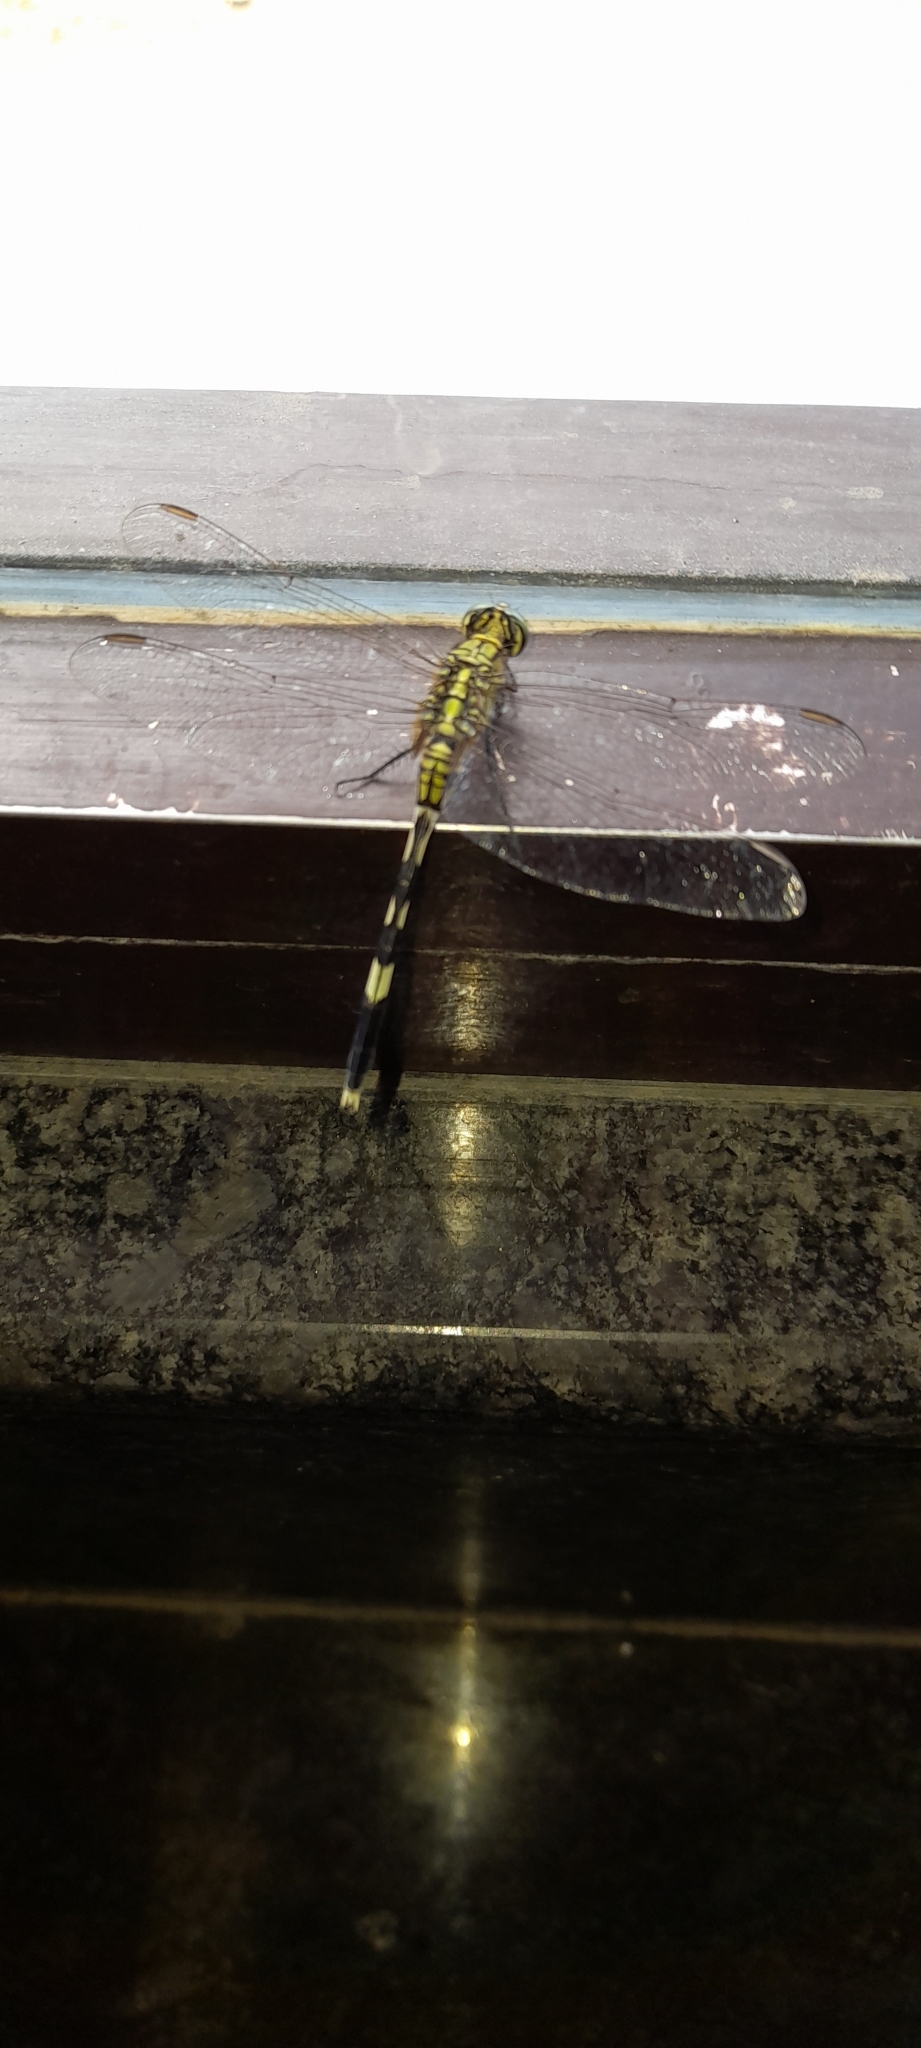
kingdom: Animalia
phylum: Arthropoda
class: Insecta
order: Odonata
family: Libellulidae
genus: Orthetrum
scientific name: Orthetrum sabina
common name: Slender skimmer
